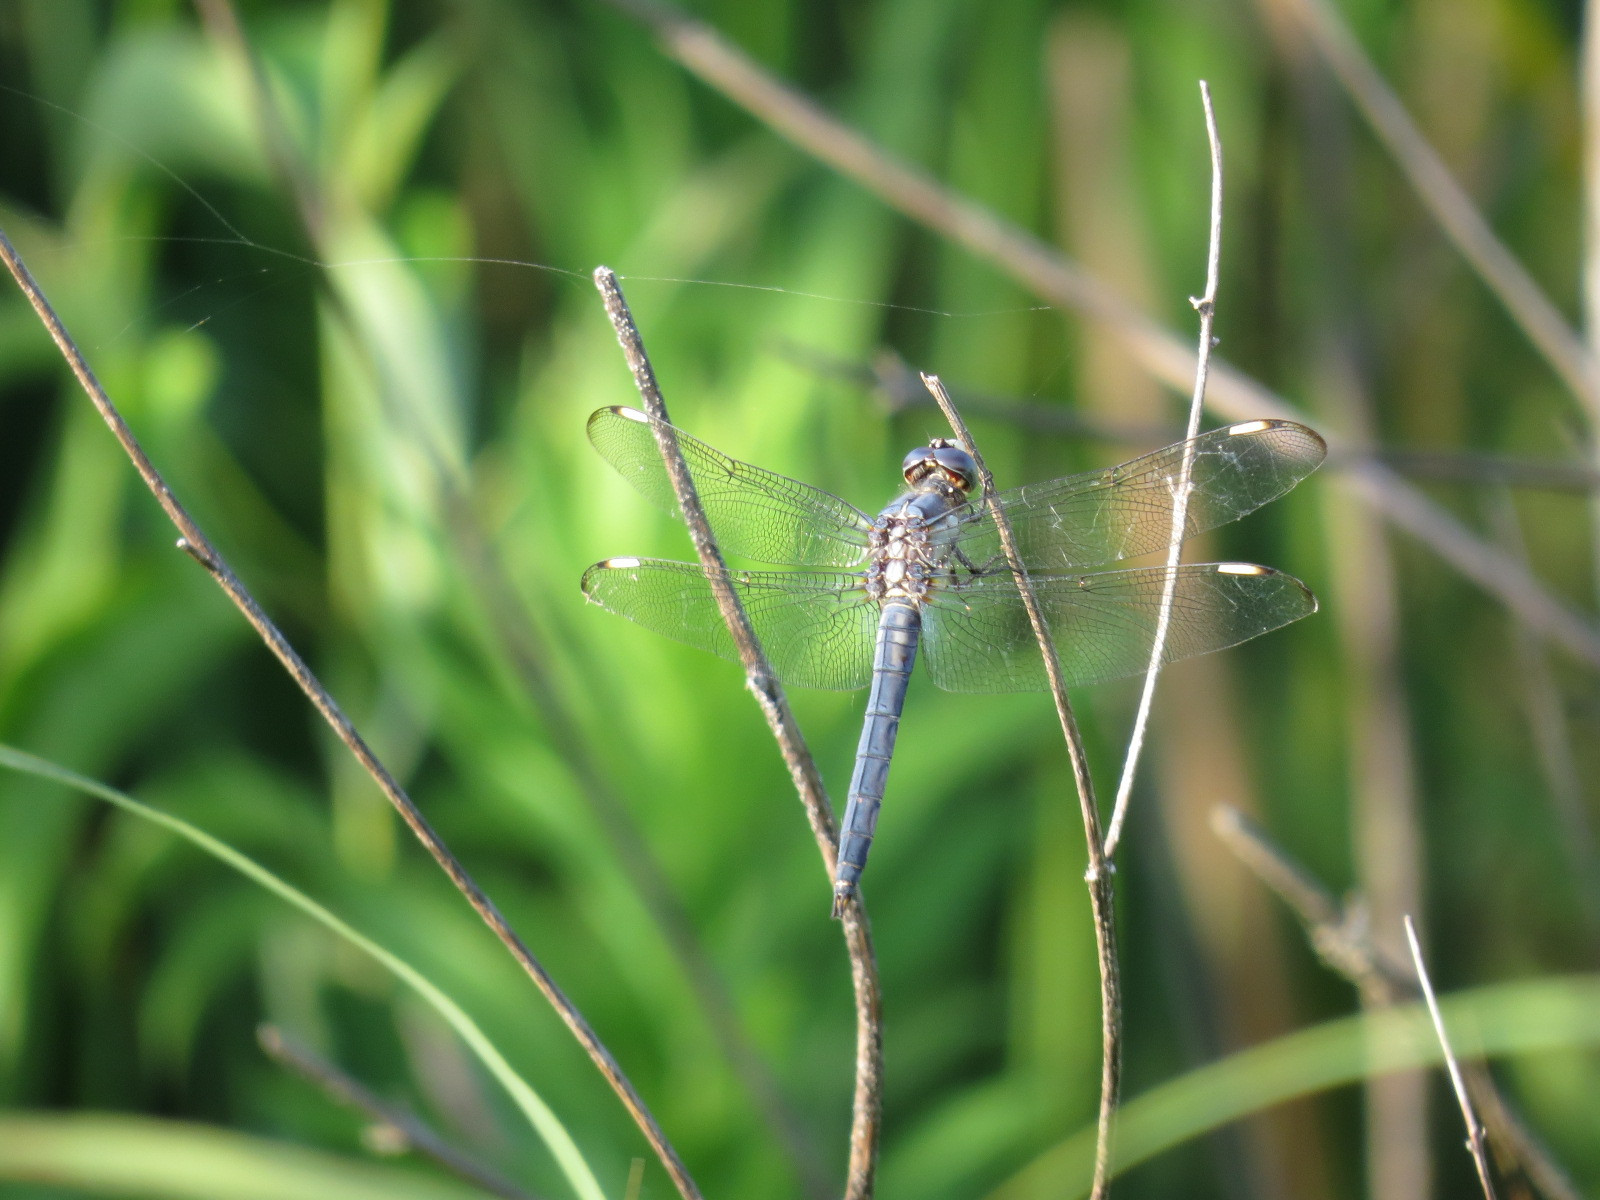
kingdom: Animalia
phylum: Arthropoda
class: Insecta
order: Odonata
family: Libellulidae
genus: Libellula
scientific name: Libellula comanche
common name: Comanche skimmer
